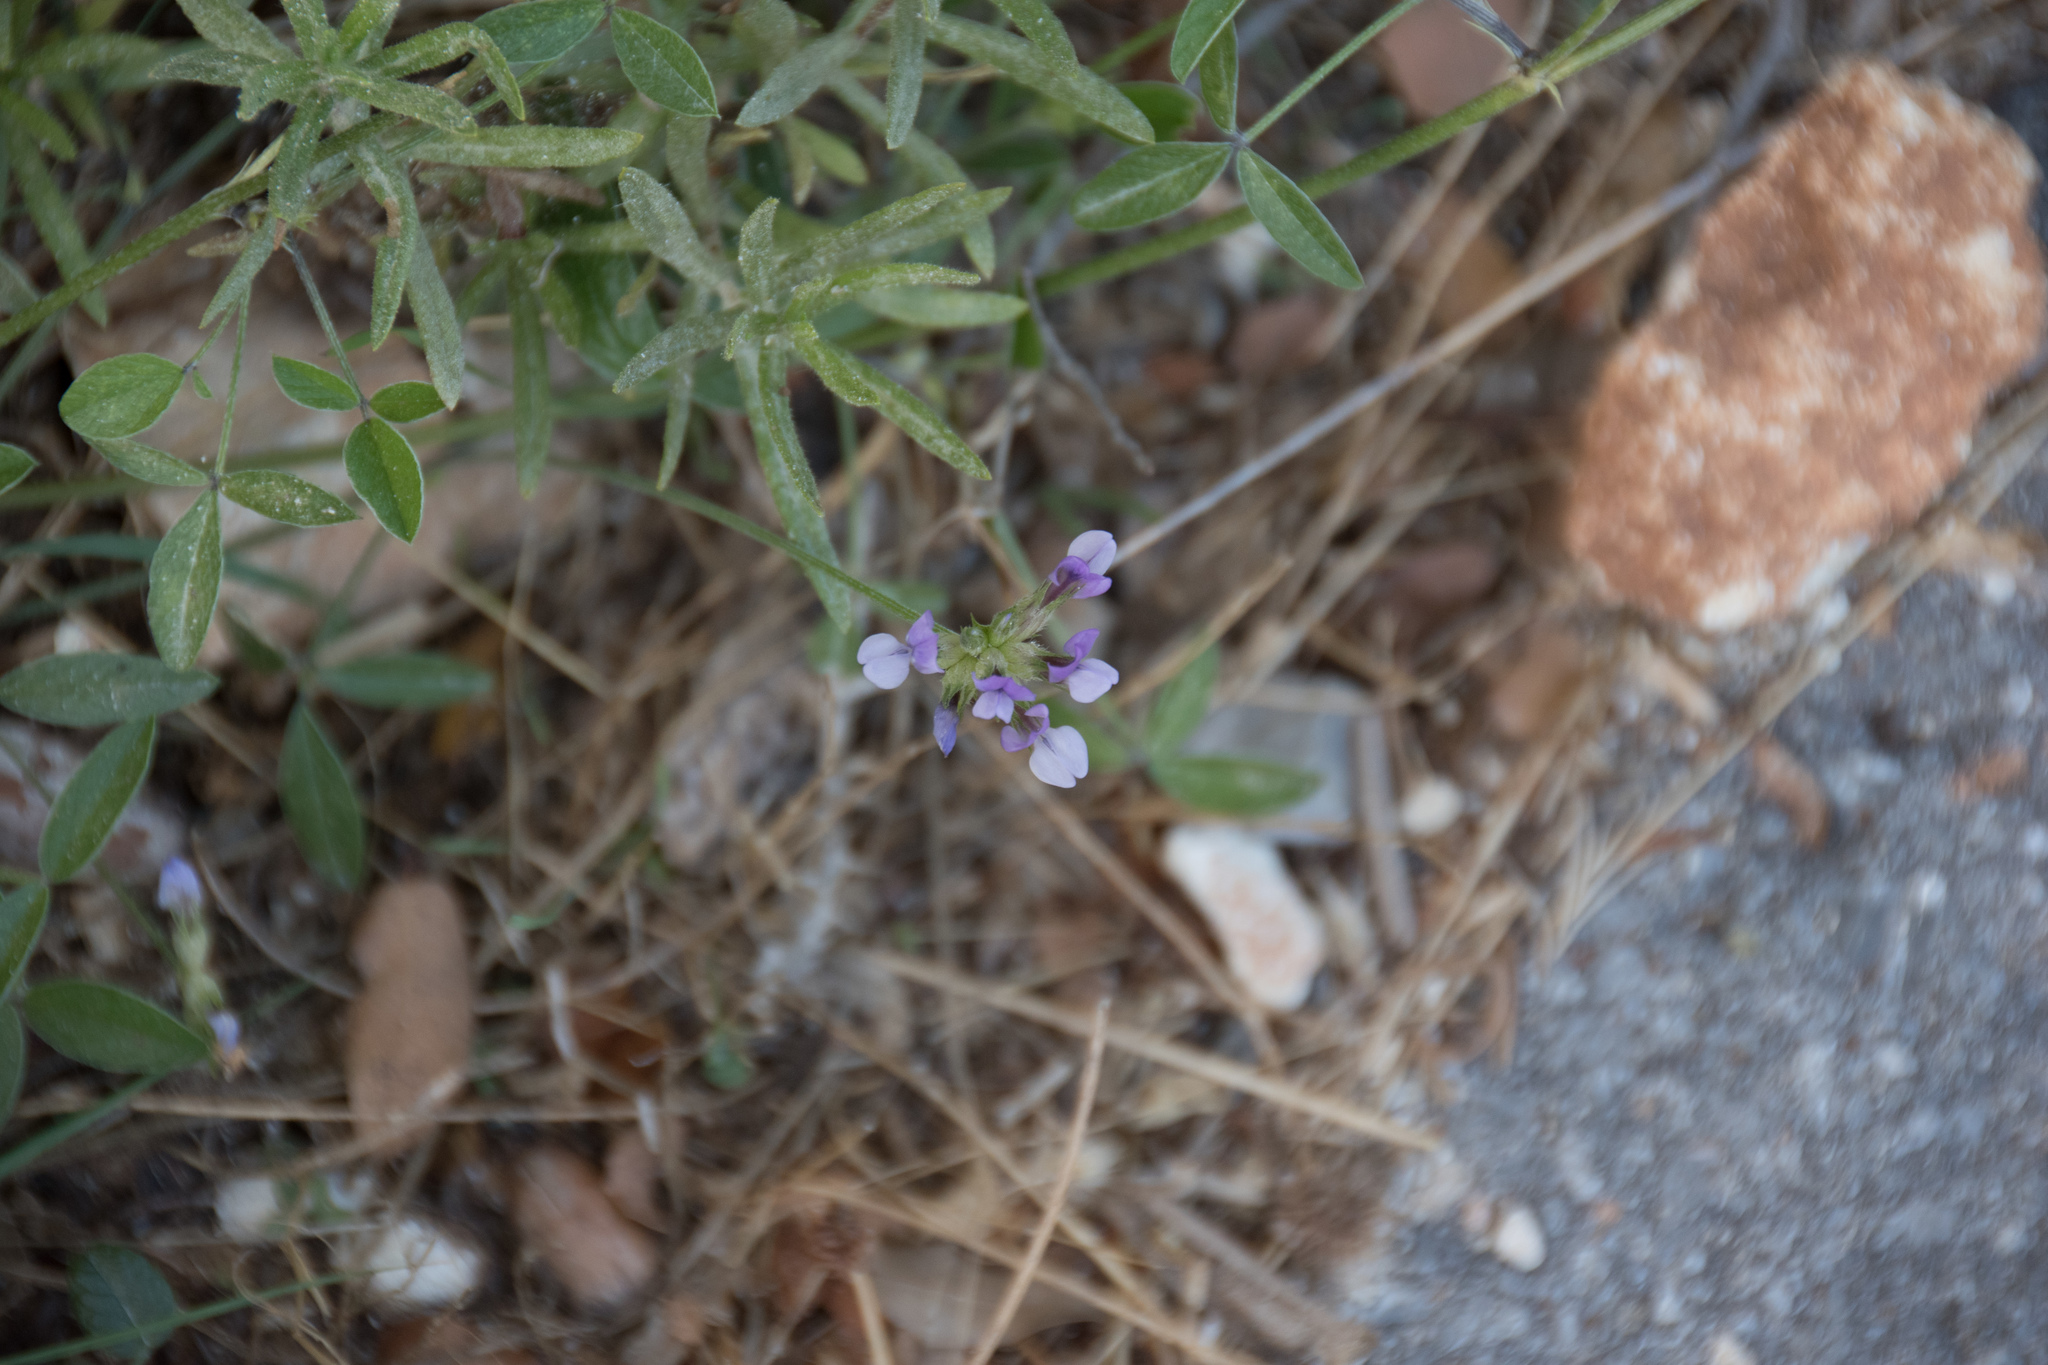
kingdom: Plantae
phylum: Tracheophyta
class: Magnoliopsida
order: Fabales
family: Fabaceae
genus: Bituminaria
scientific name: Bituminaria bituminosa
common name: Arabian pea
